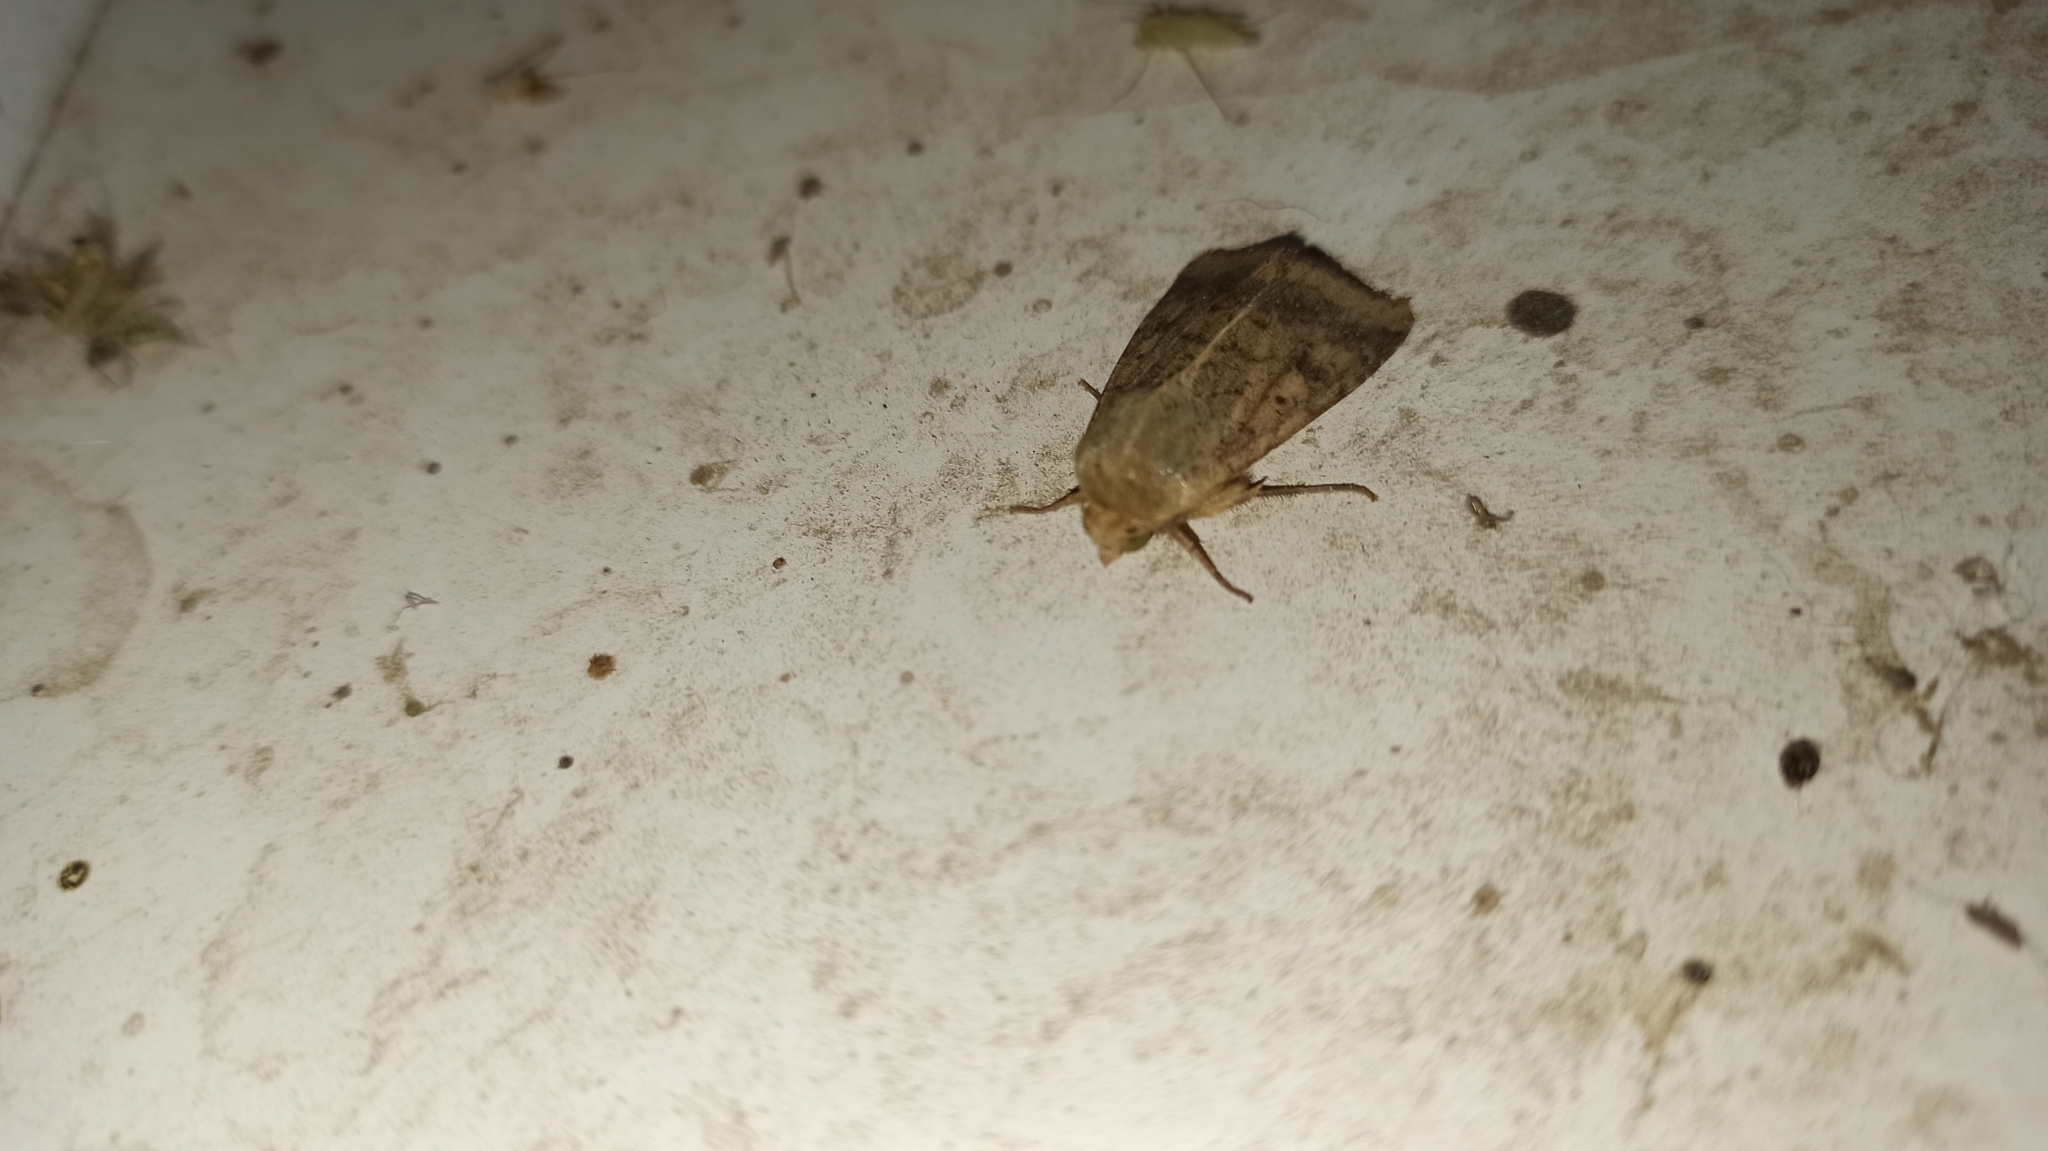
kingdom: Animalia
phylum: Arthropoda
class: Insecta
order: Lepidoptera
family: Noctuidae
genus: Helicoverpa
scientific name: Helicoverpa armigera
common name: Cotton bollworm
